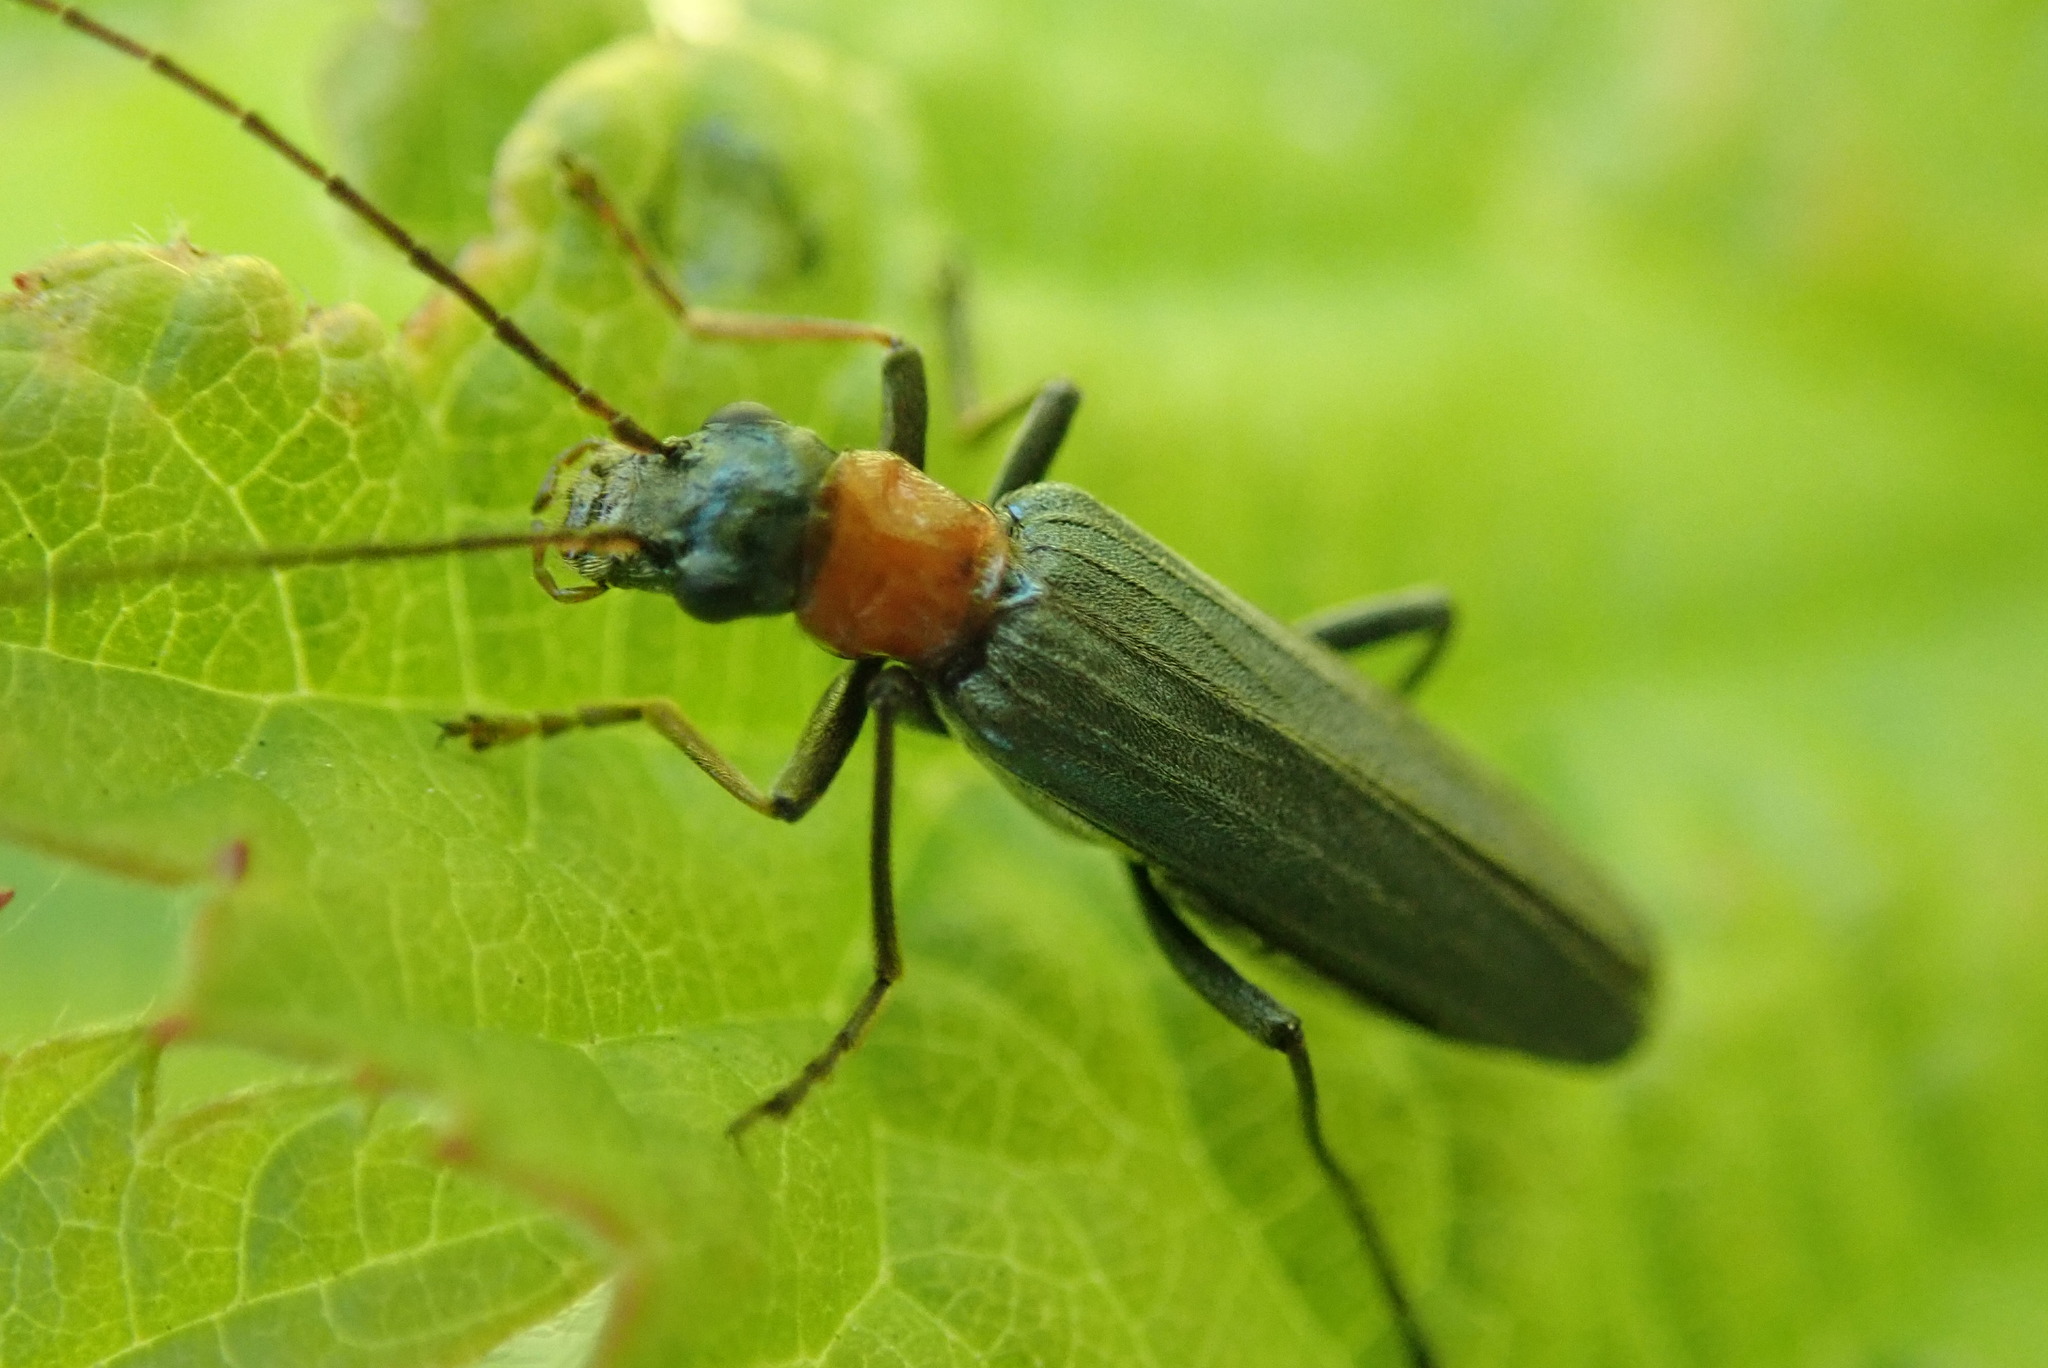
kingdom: Animalia
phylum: Arthropoda
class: Insecta
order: Coleoptera
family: Oedemeridae
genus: Oedemera
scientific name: Oedemera croceicollis
